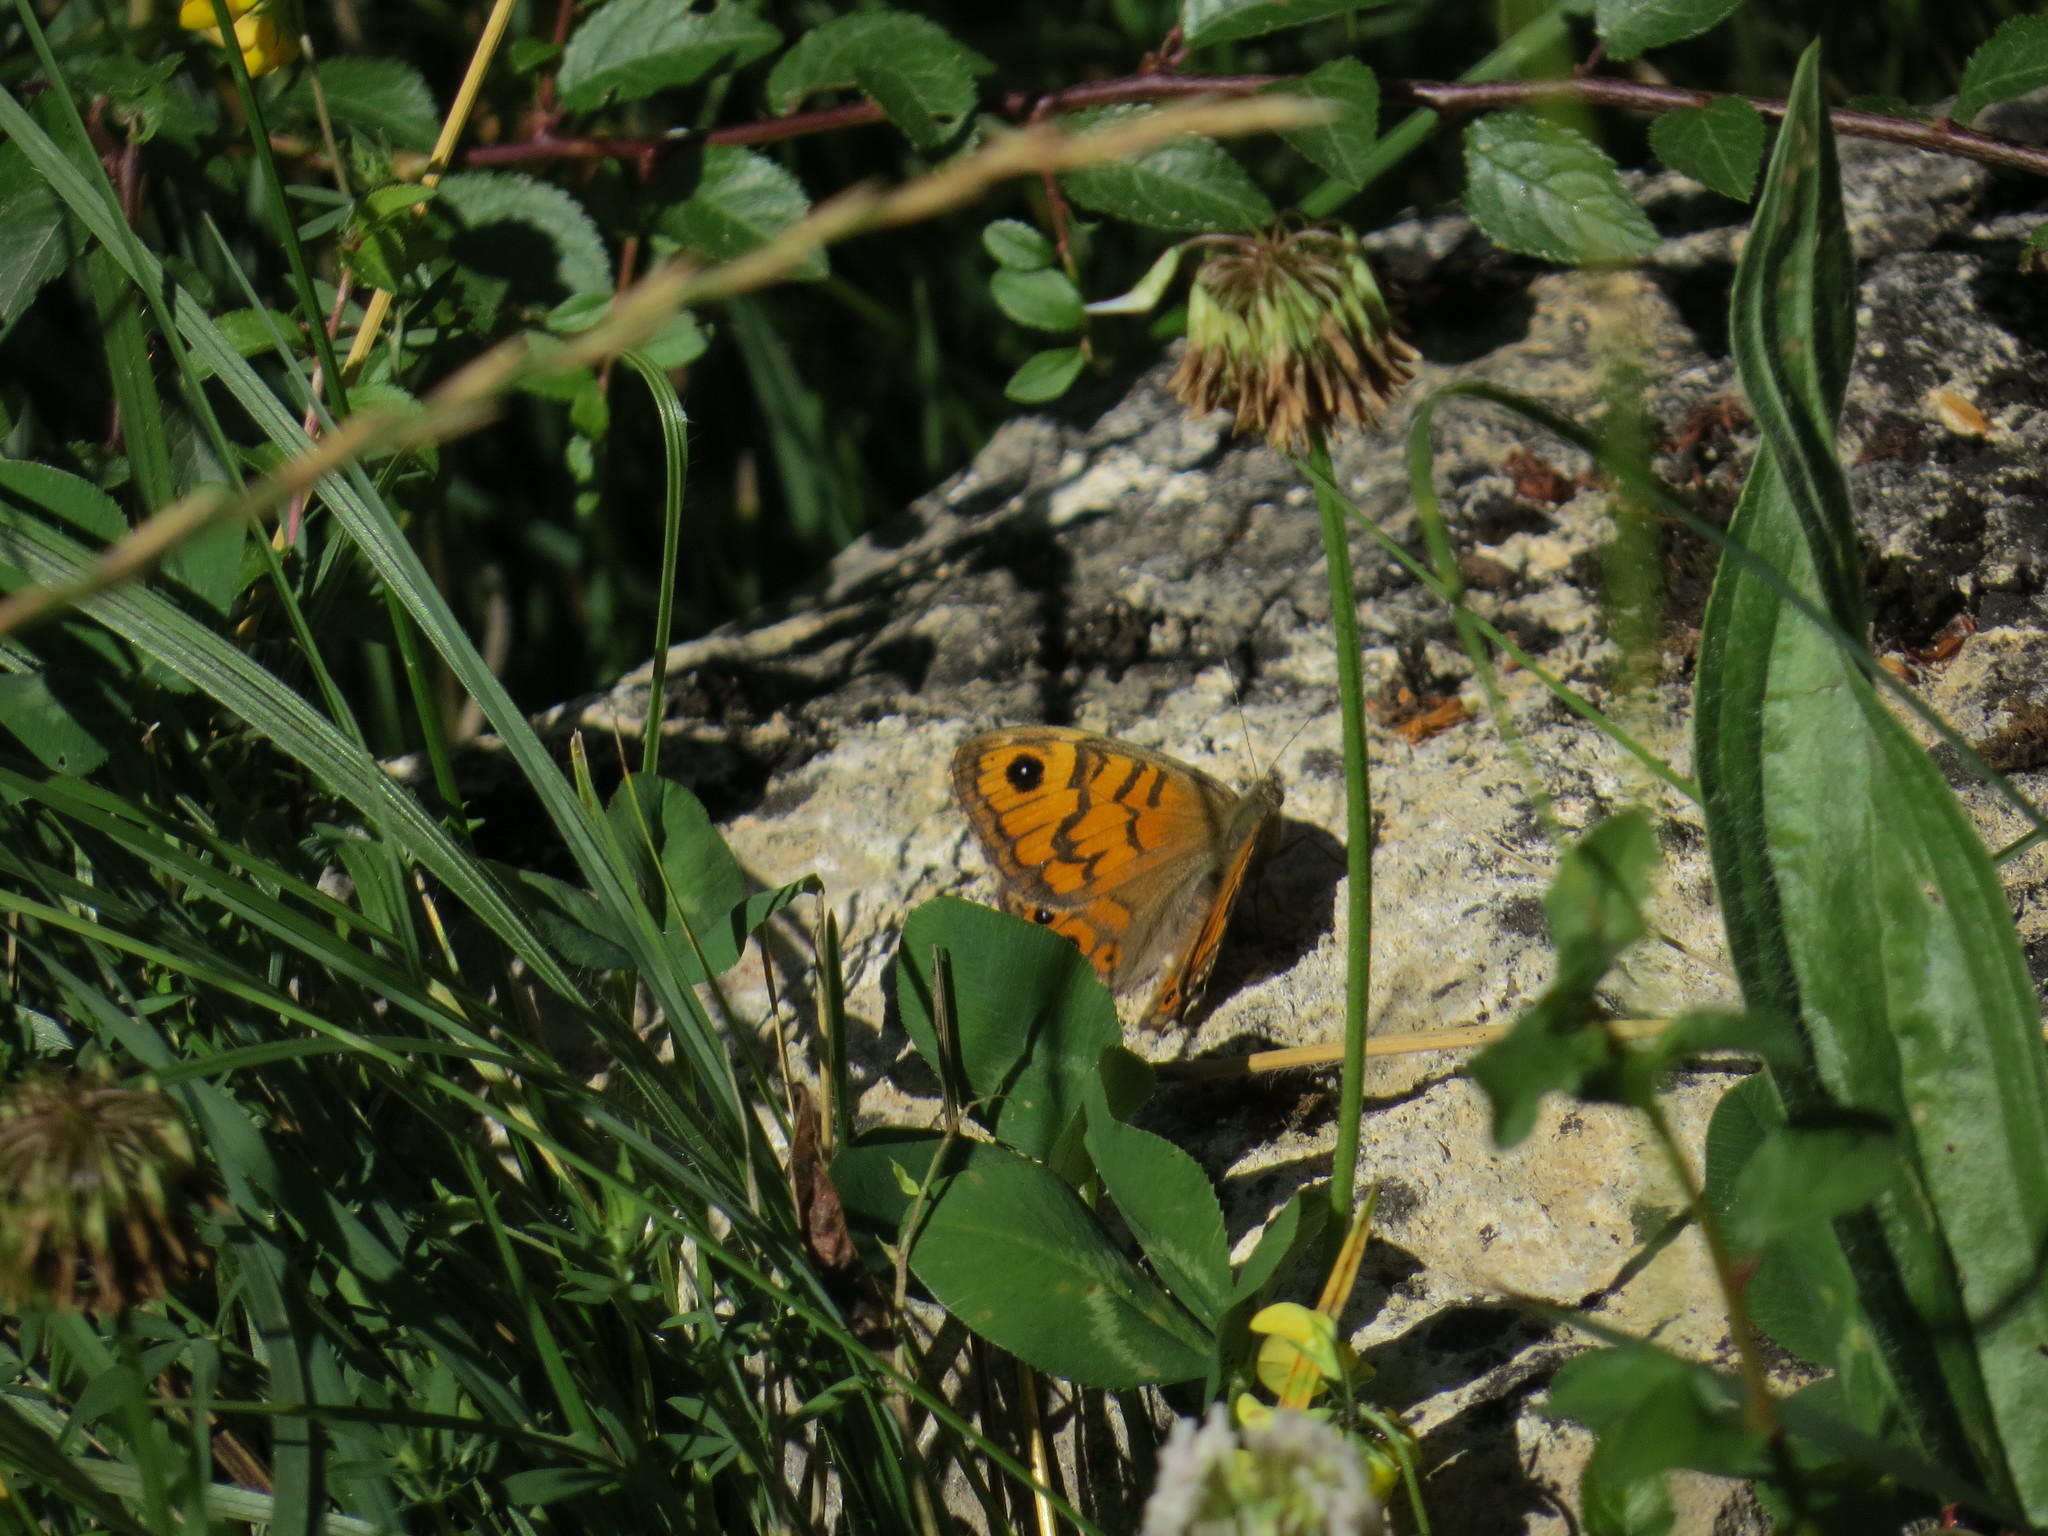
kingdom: Animalia
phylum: Arthropoda
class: Insecta
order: Lepidoptera
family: Nymphalidae
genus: Pararge
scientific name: Pararge Lasiommata megera
